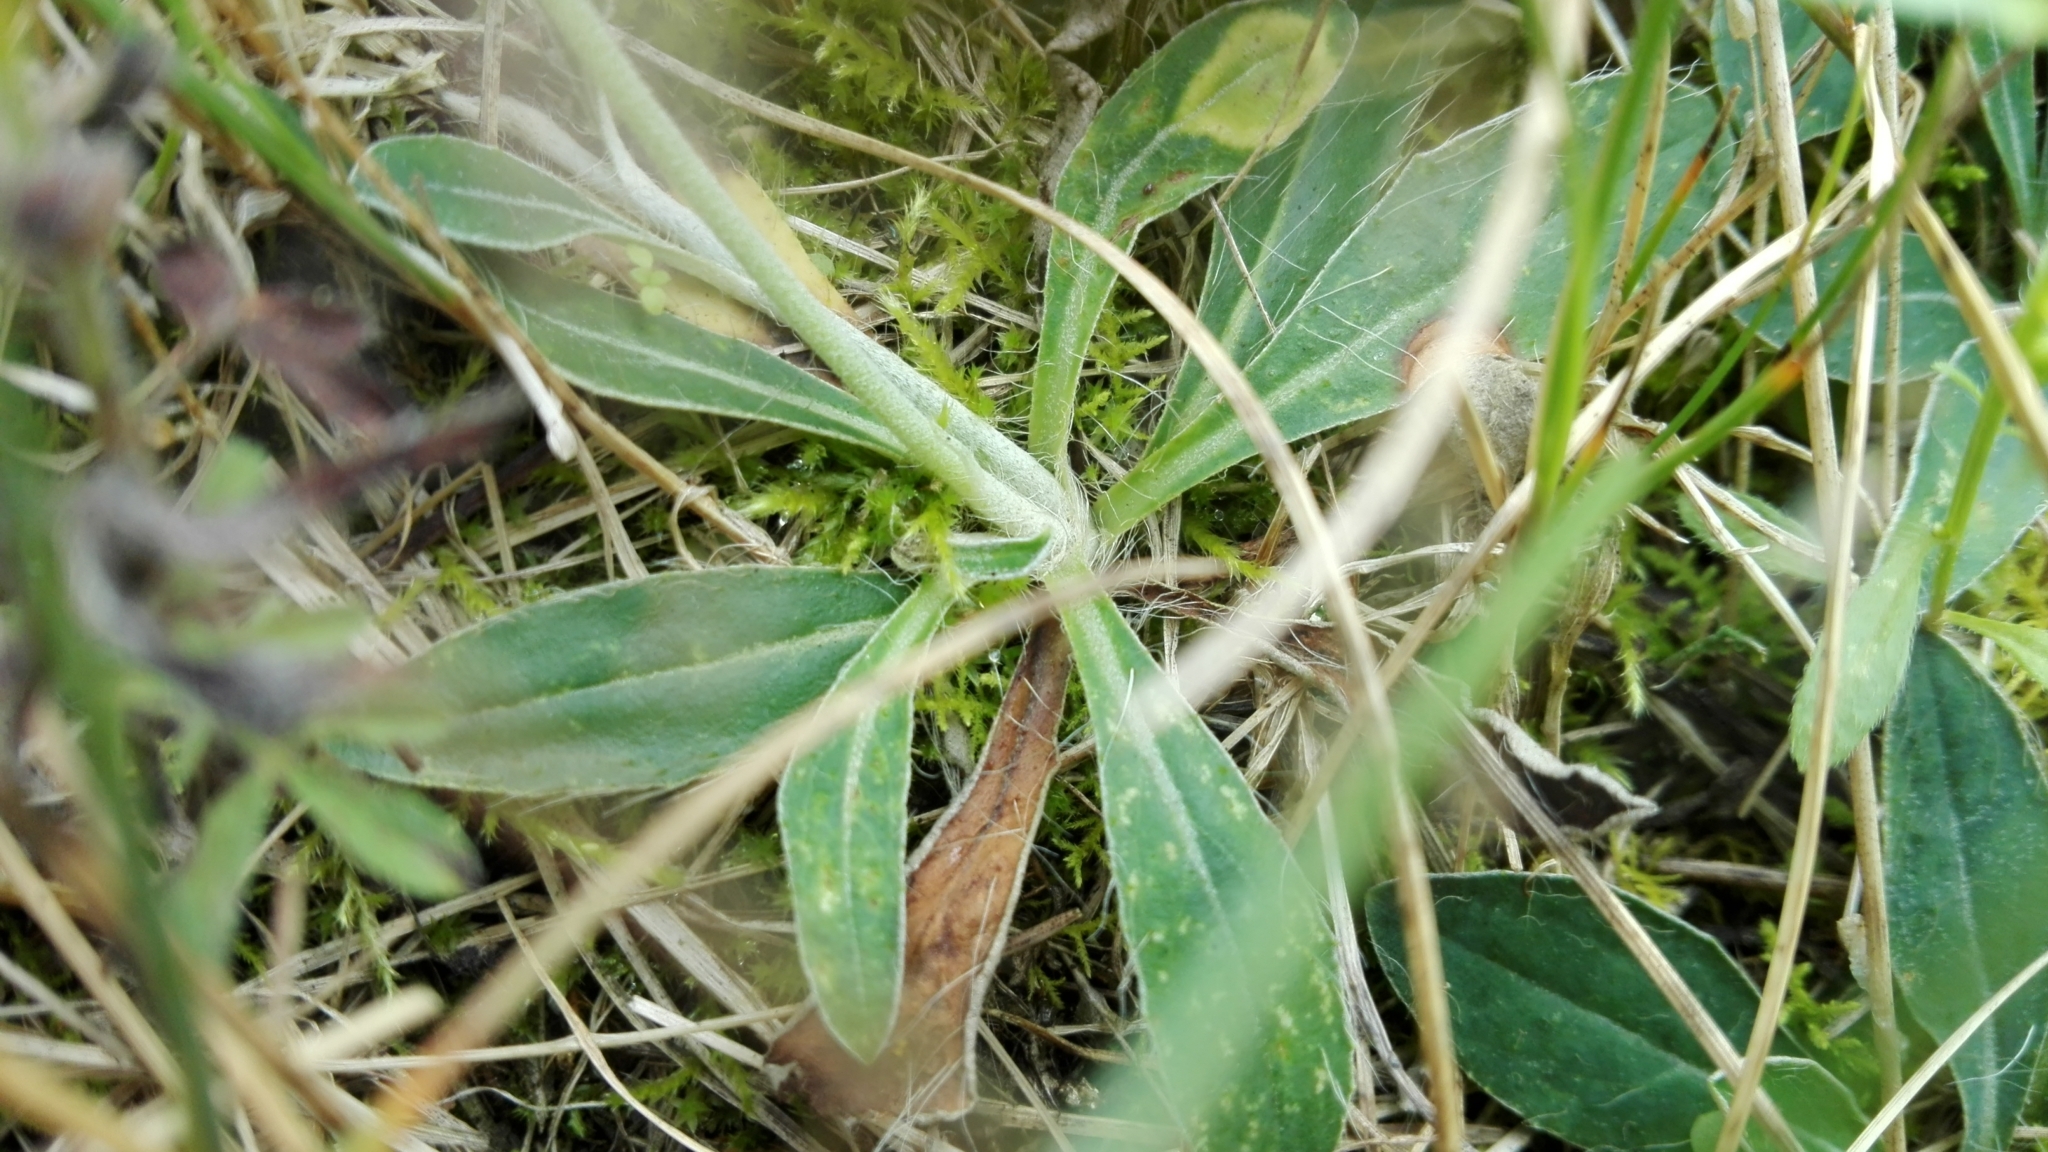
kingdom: Plantae
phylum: Tracheophyta
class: Magnoliopsida
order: Asterales
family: Asteraceae
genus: Pilosella
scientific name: Pilosella officinarum
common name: Mouse-ear hawkweed
